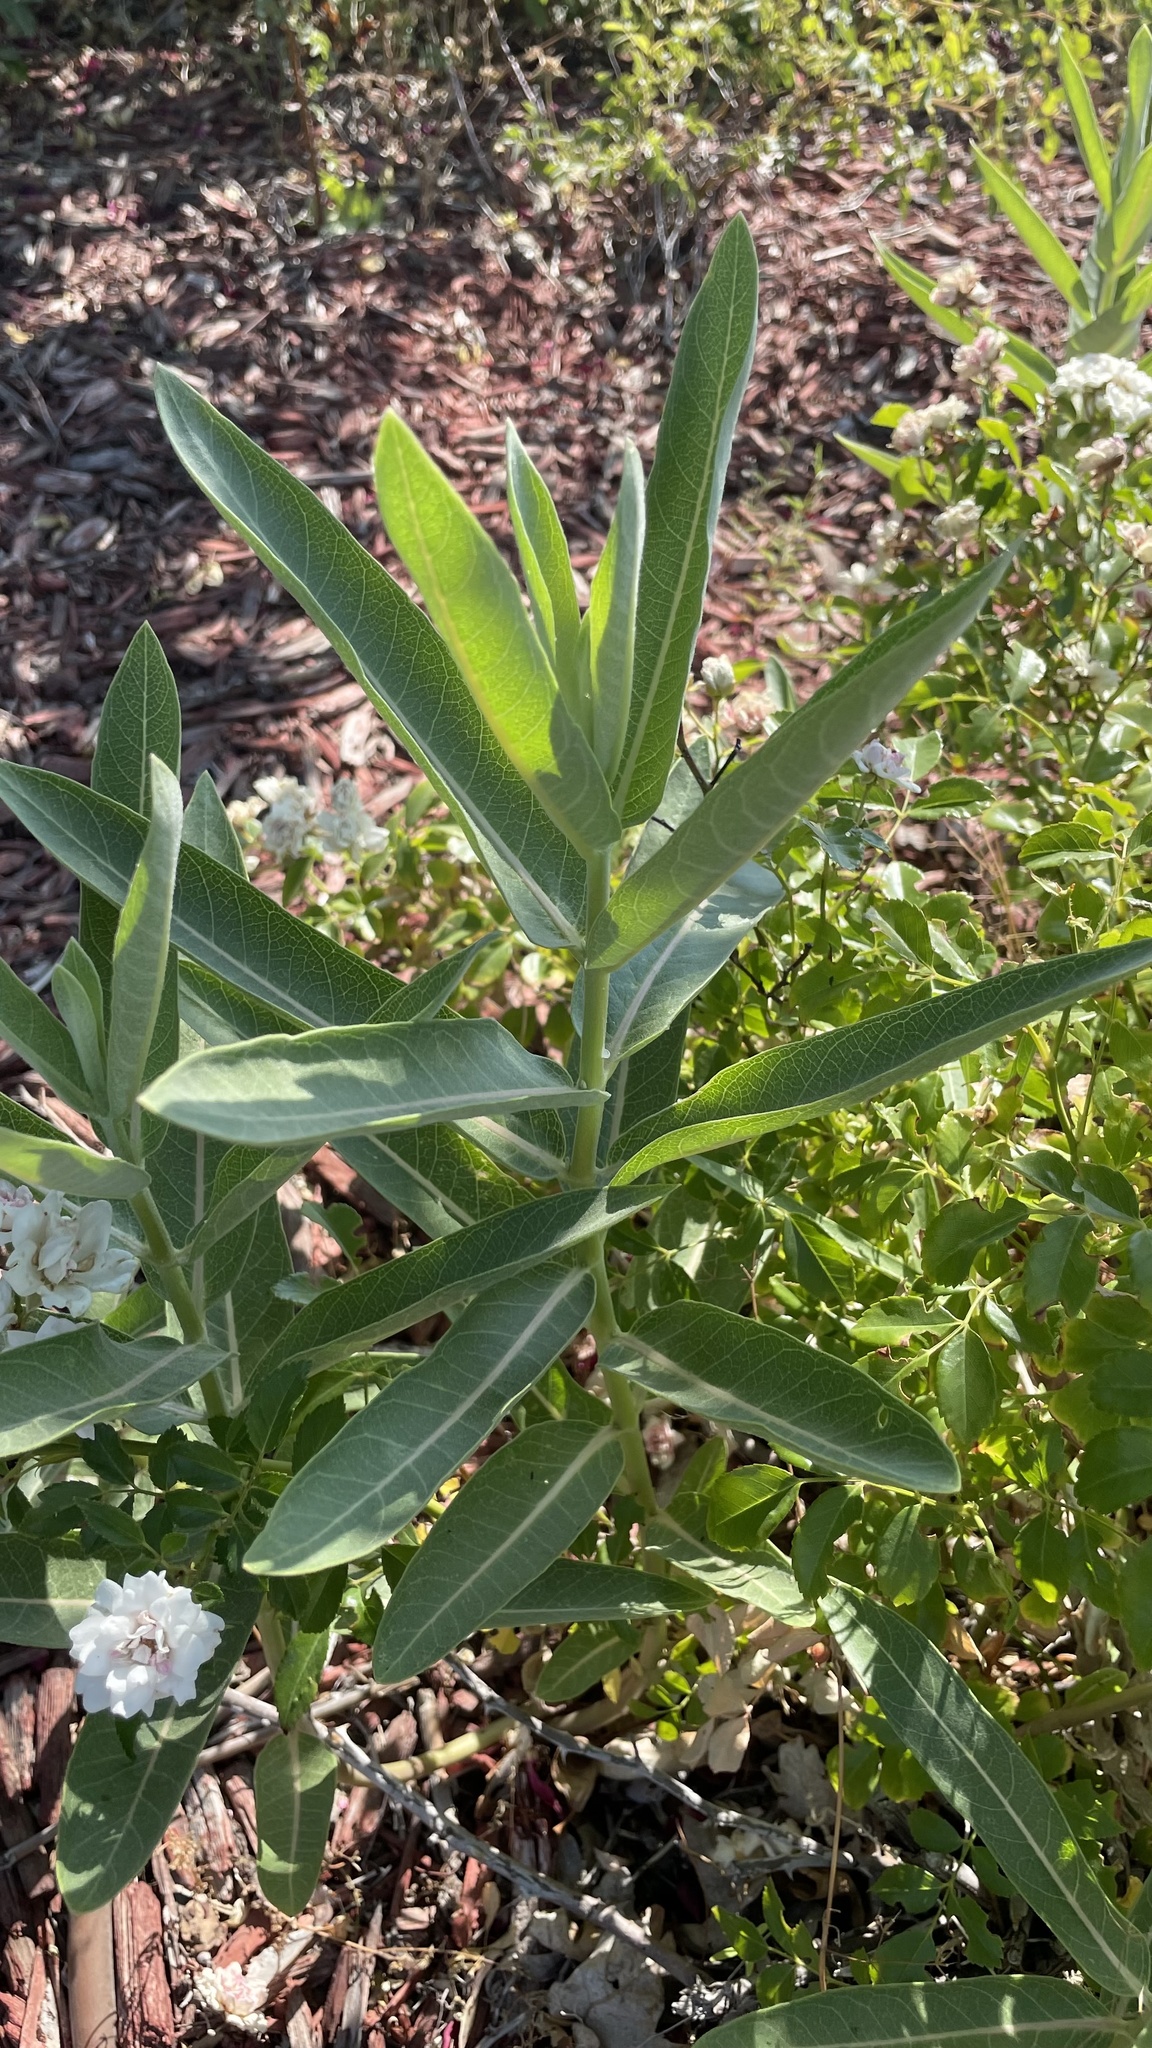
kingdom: Plantae
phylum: Tracheophyta
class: Magnoliopsida
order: Gentianales
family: Apocynaceae
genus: Asclepias
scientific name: Asclepias speciosa
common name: Showy milkweed
